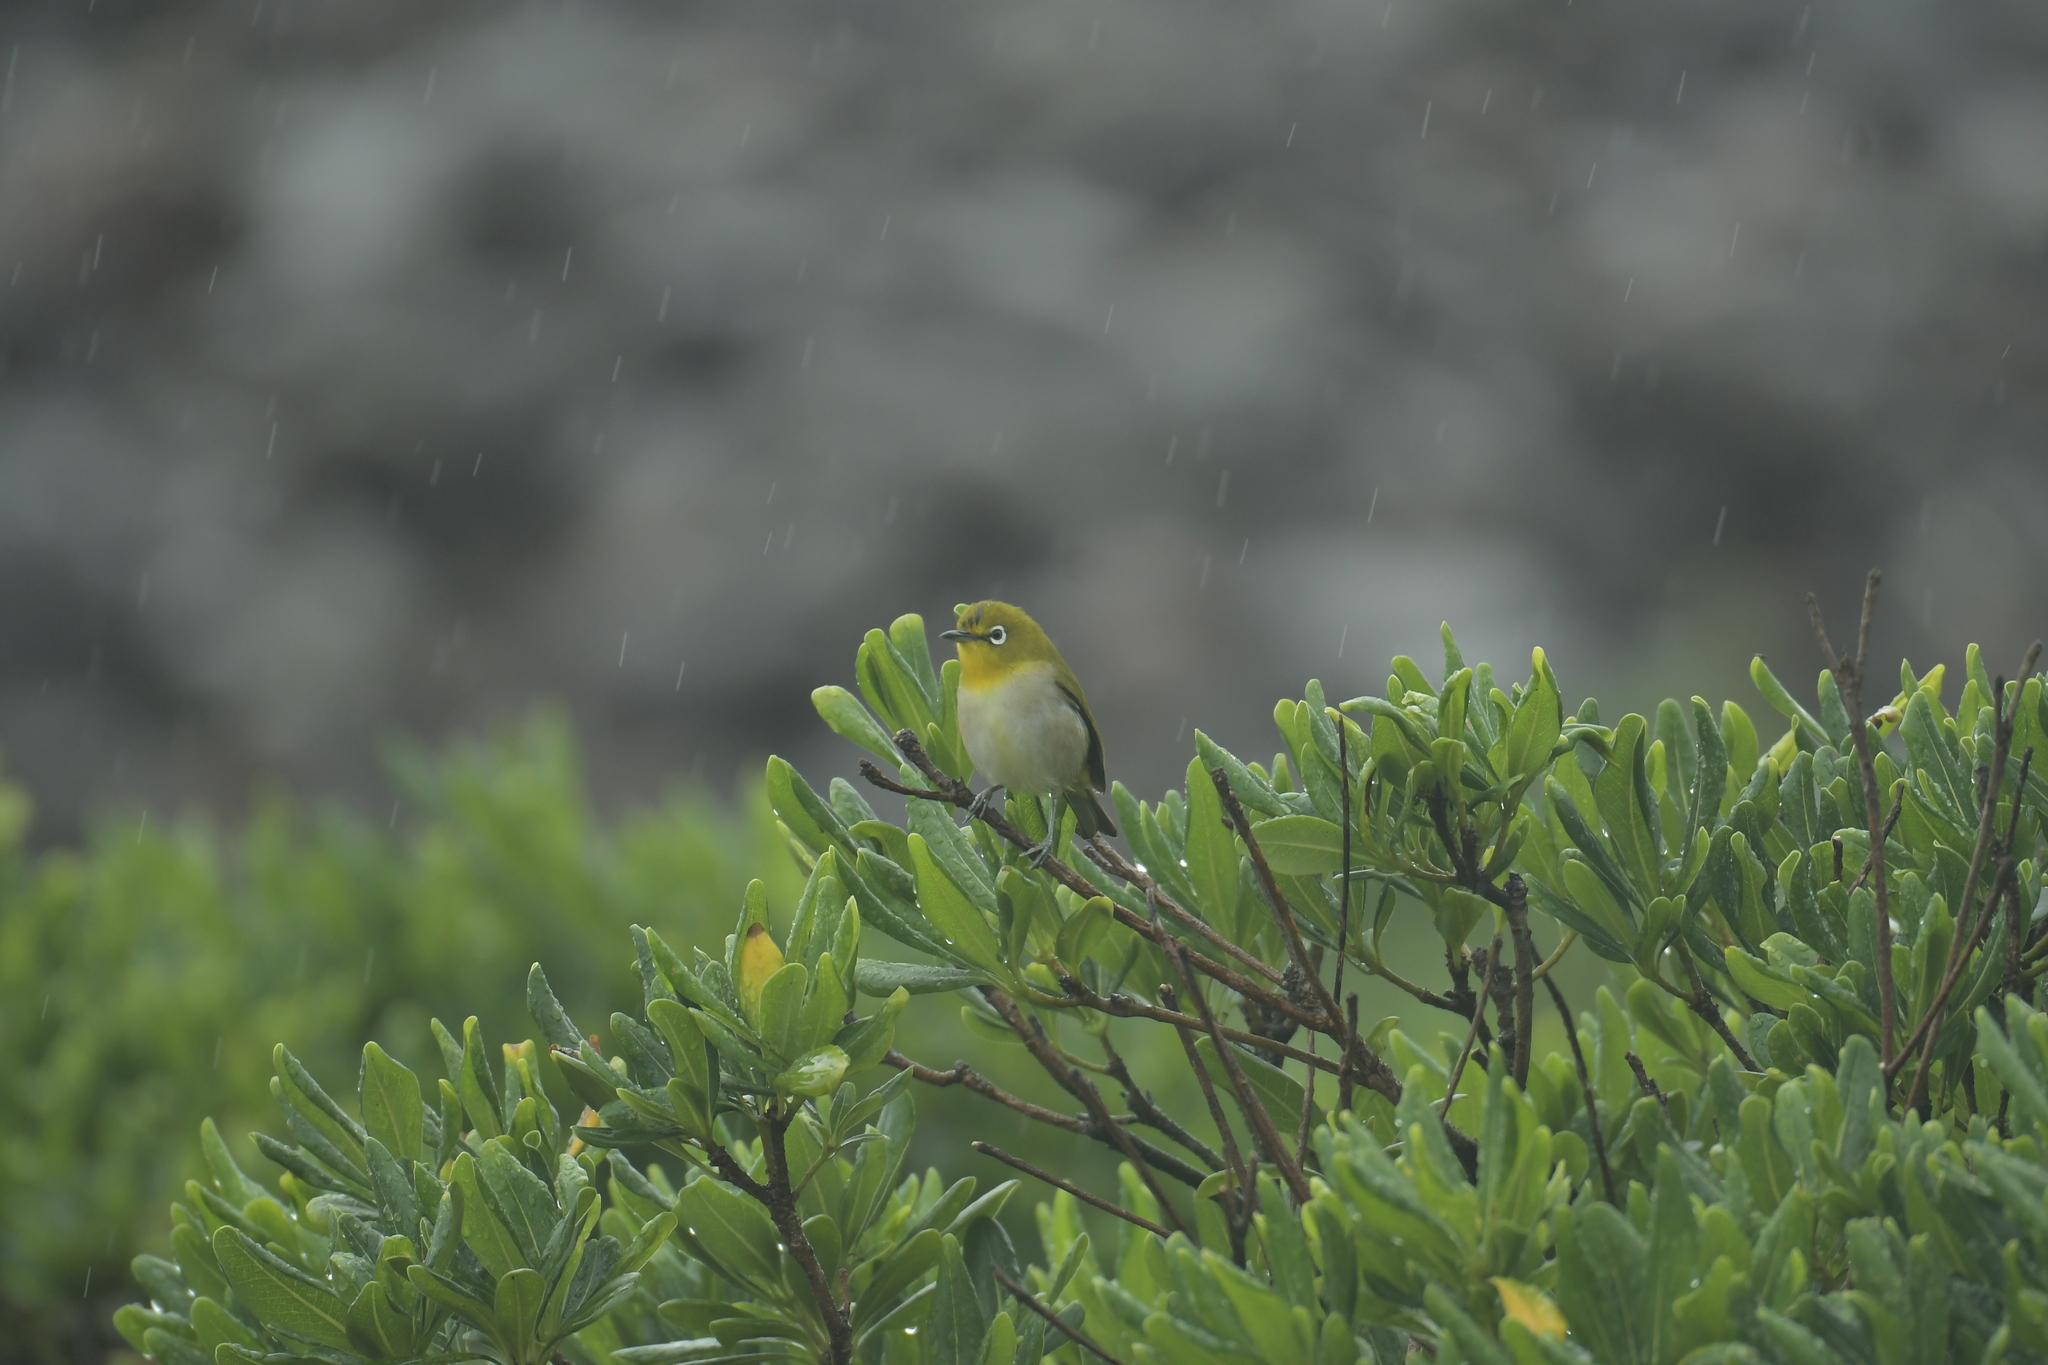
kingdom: Animalia
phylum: Chordata
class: Aves
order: Passeriformes
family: Zosteropidae
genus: Zosterops
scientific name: Zosterops japonicus
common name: Japanese white-eye
